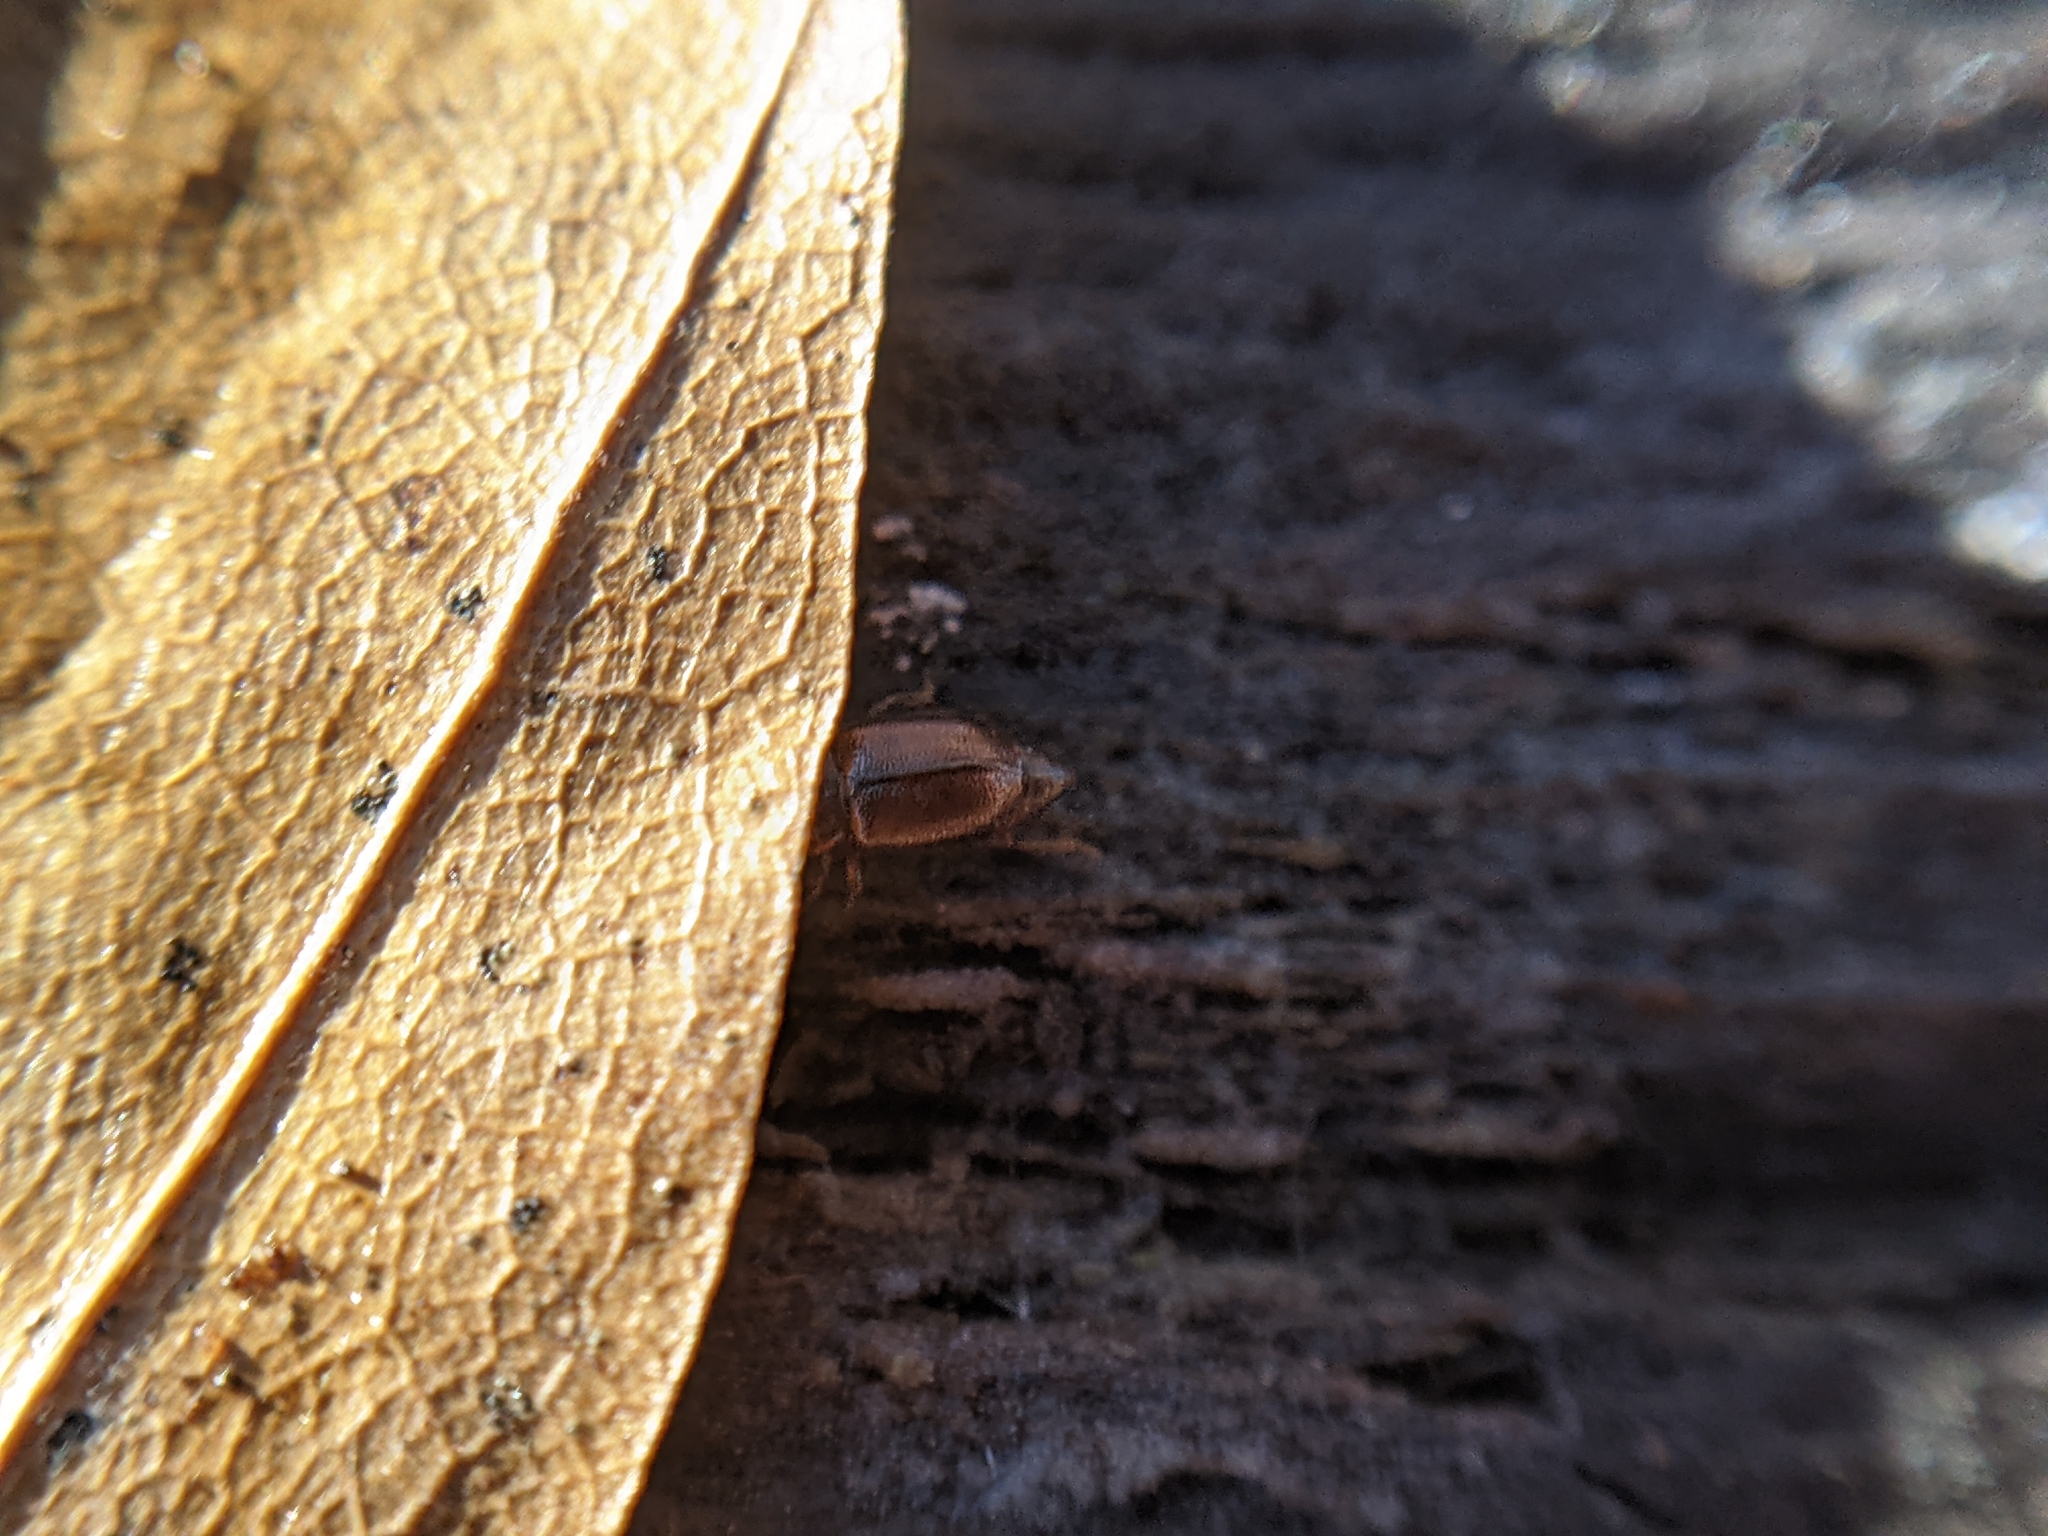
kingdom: Animalia
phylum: Arthropoda
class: Insecta
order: Coleoptera
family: Staphylinidae
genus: Anthobium
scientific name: Anthobium atrocephalum
